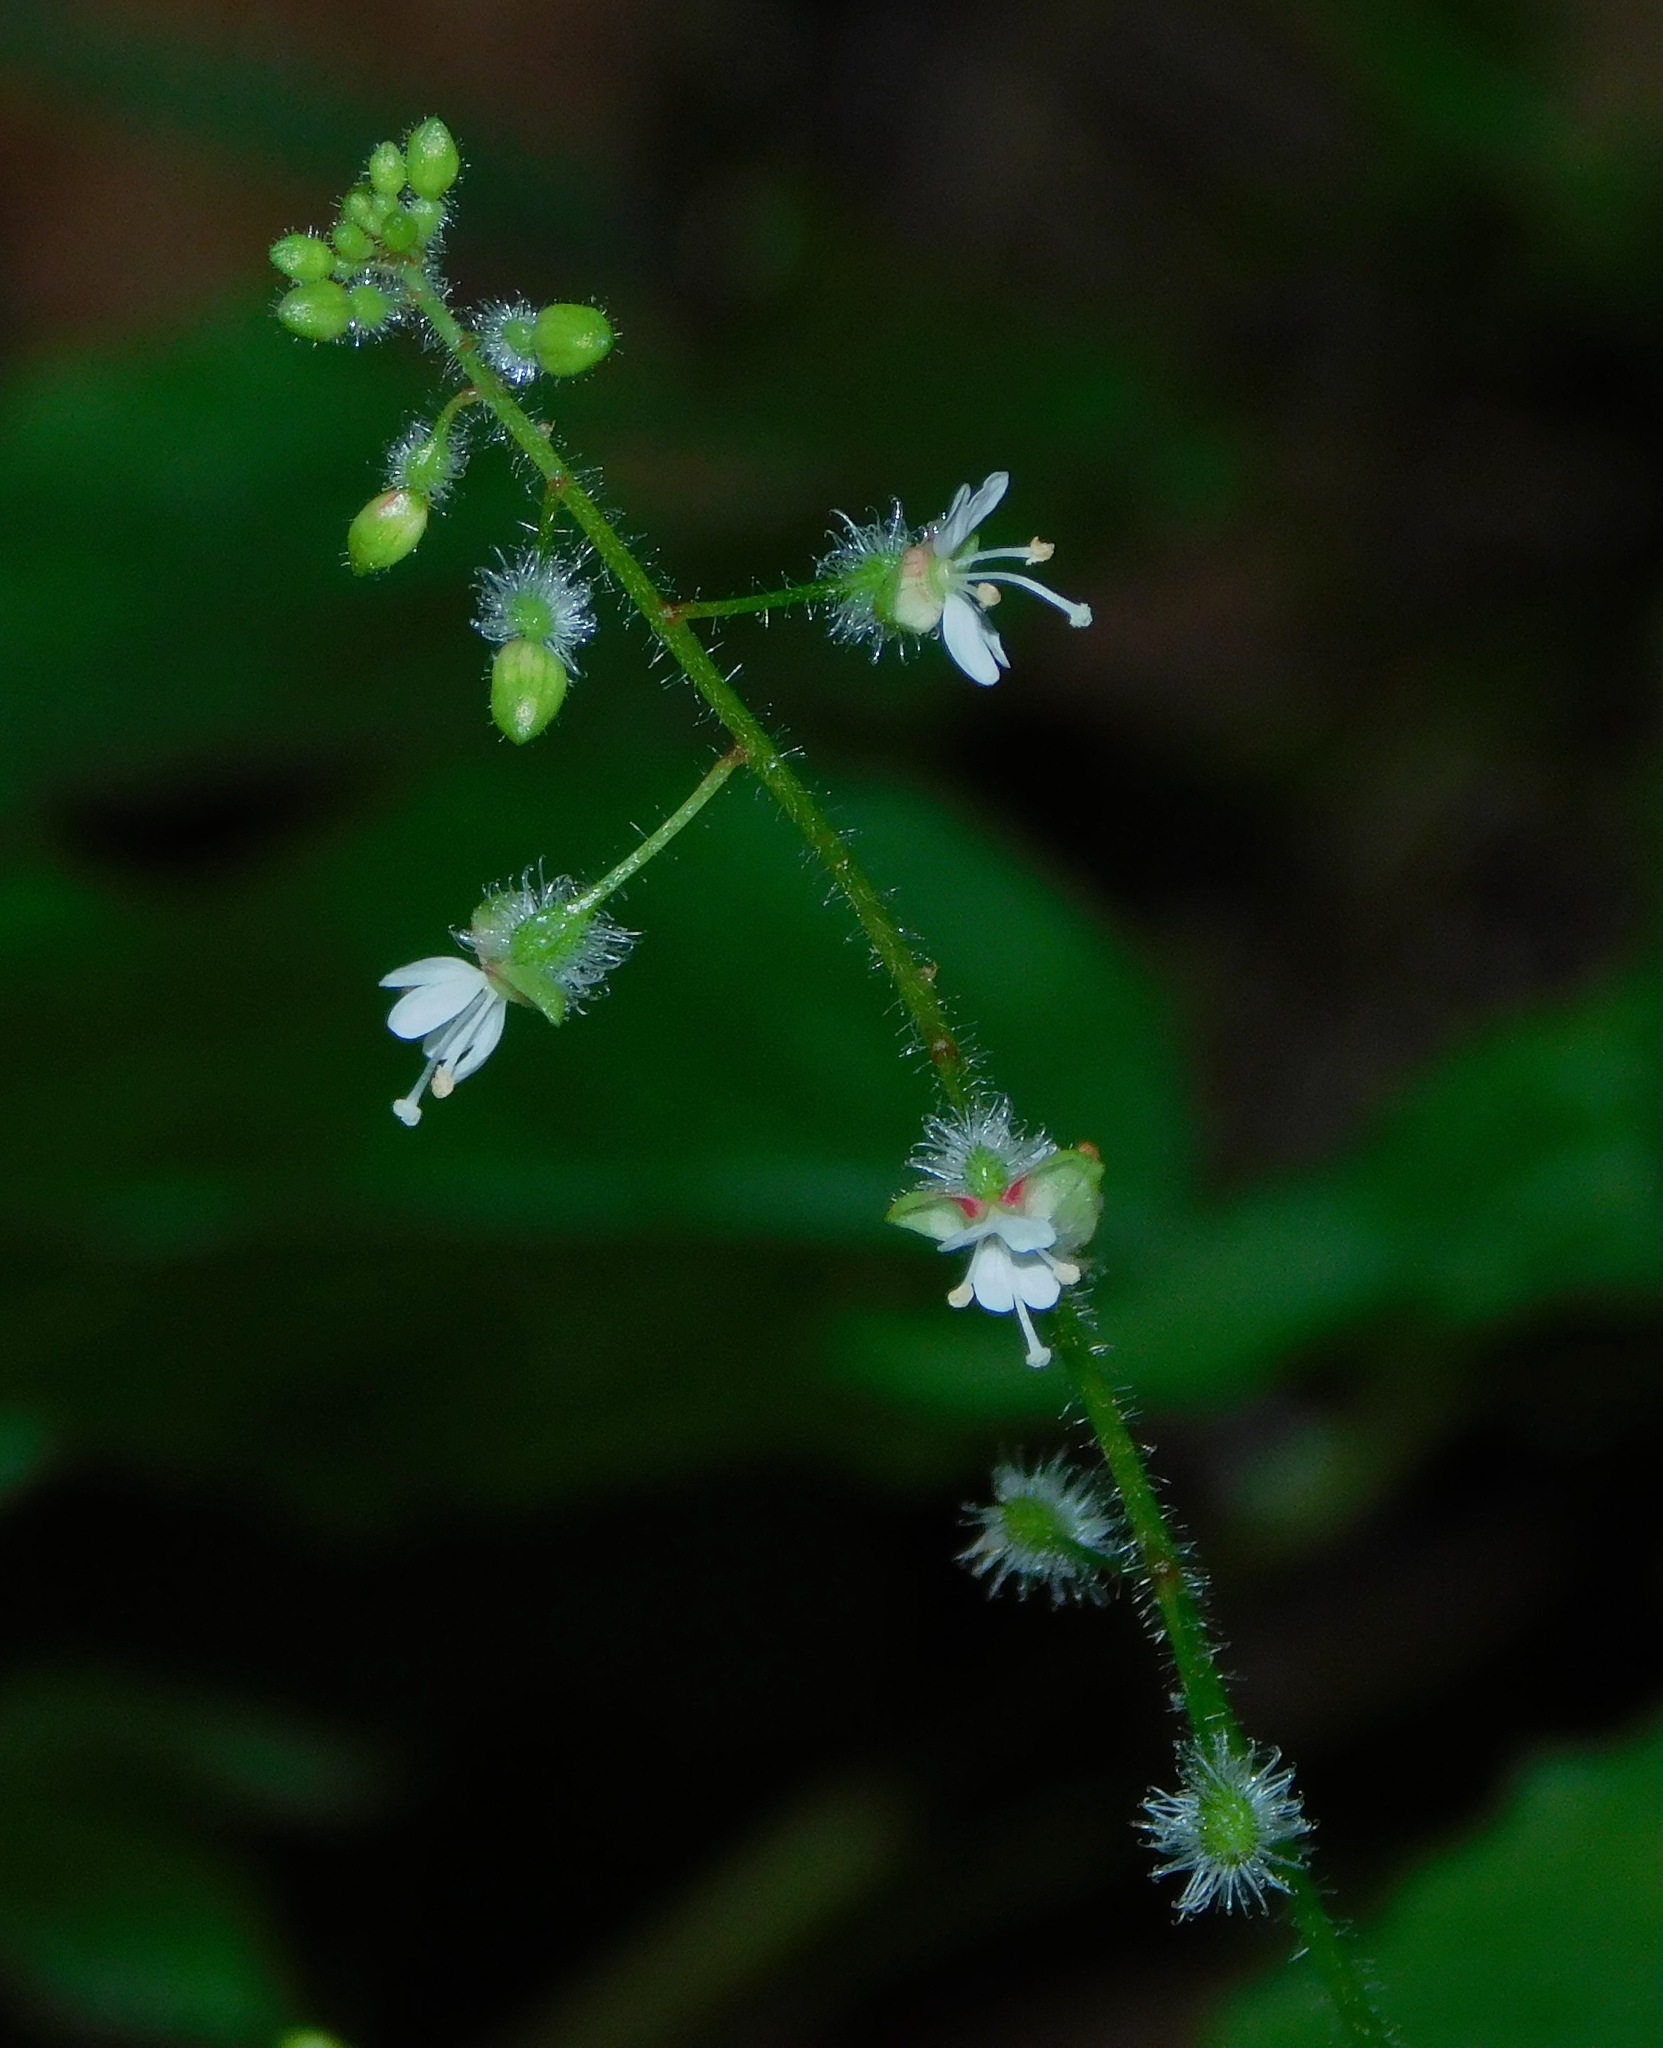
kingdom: Plantae
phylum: Tracheophyta
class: Magnoliopsida
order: Myrtales
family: Onagraceae
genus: Circaea
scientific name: Circaea canadensis
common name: Broad-leaved enchanter's nightshade
